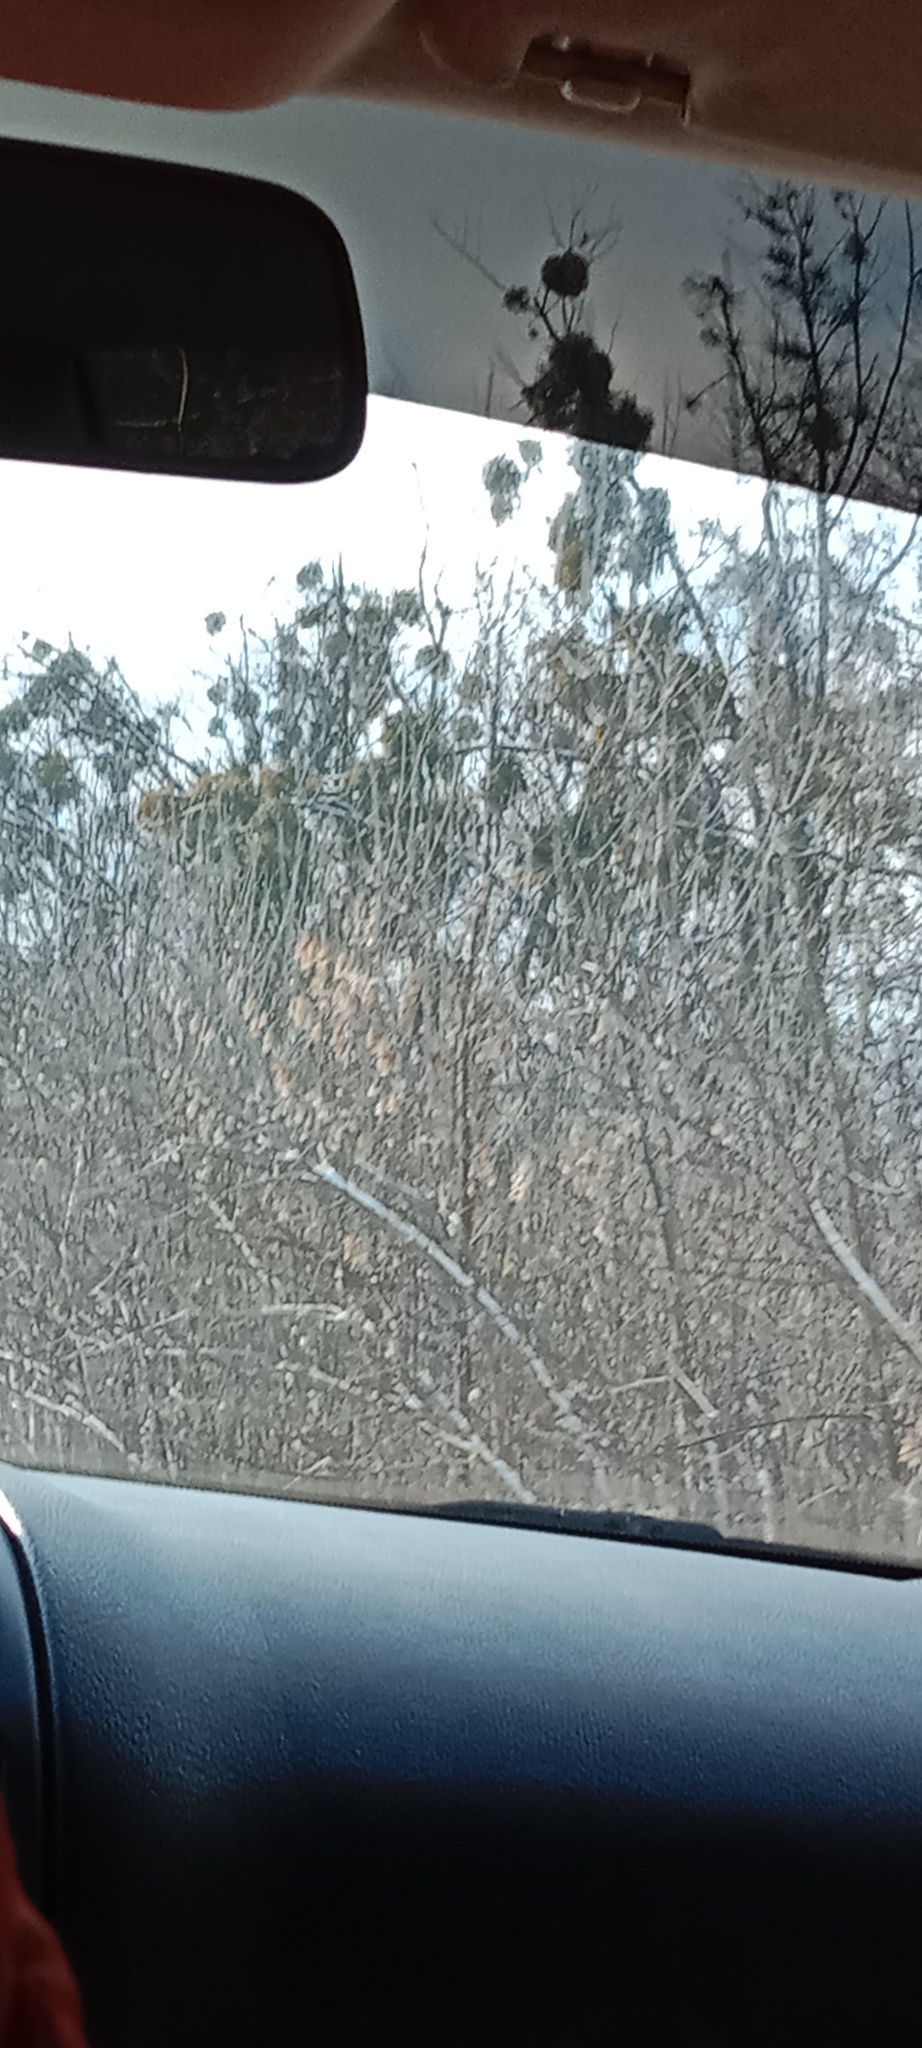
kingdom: Plantae
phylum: Tracheophyta
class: Magnoliopsida
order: Santalales
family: Viscaceae
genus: Viscum
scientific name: Viscum album
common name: Mistletoe
